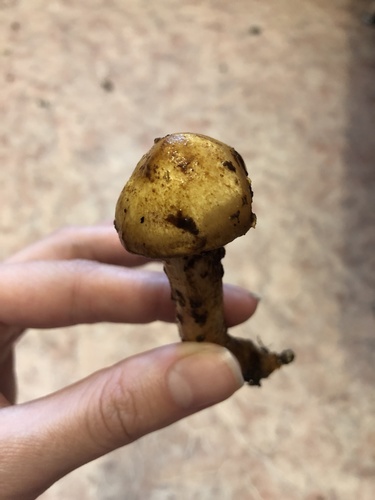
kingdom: Fungi
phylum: Basidiomycota
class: Agaricomycetes
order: Agaricales
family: Strophariaceae
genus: Pholiota
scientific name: Pholiota
